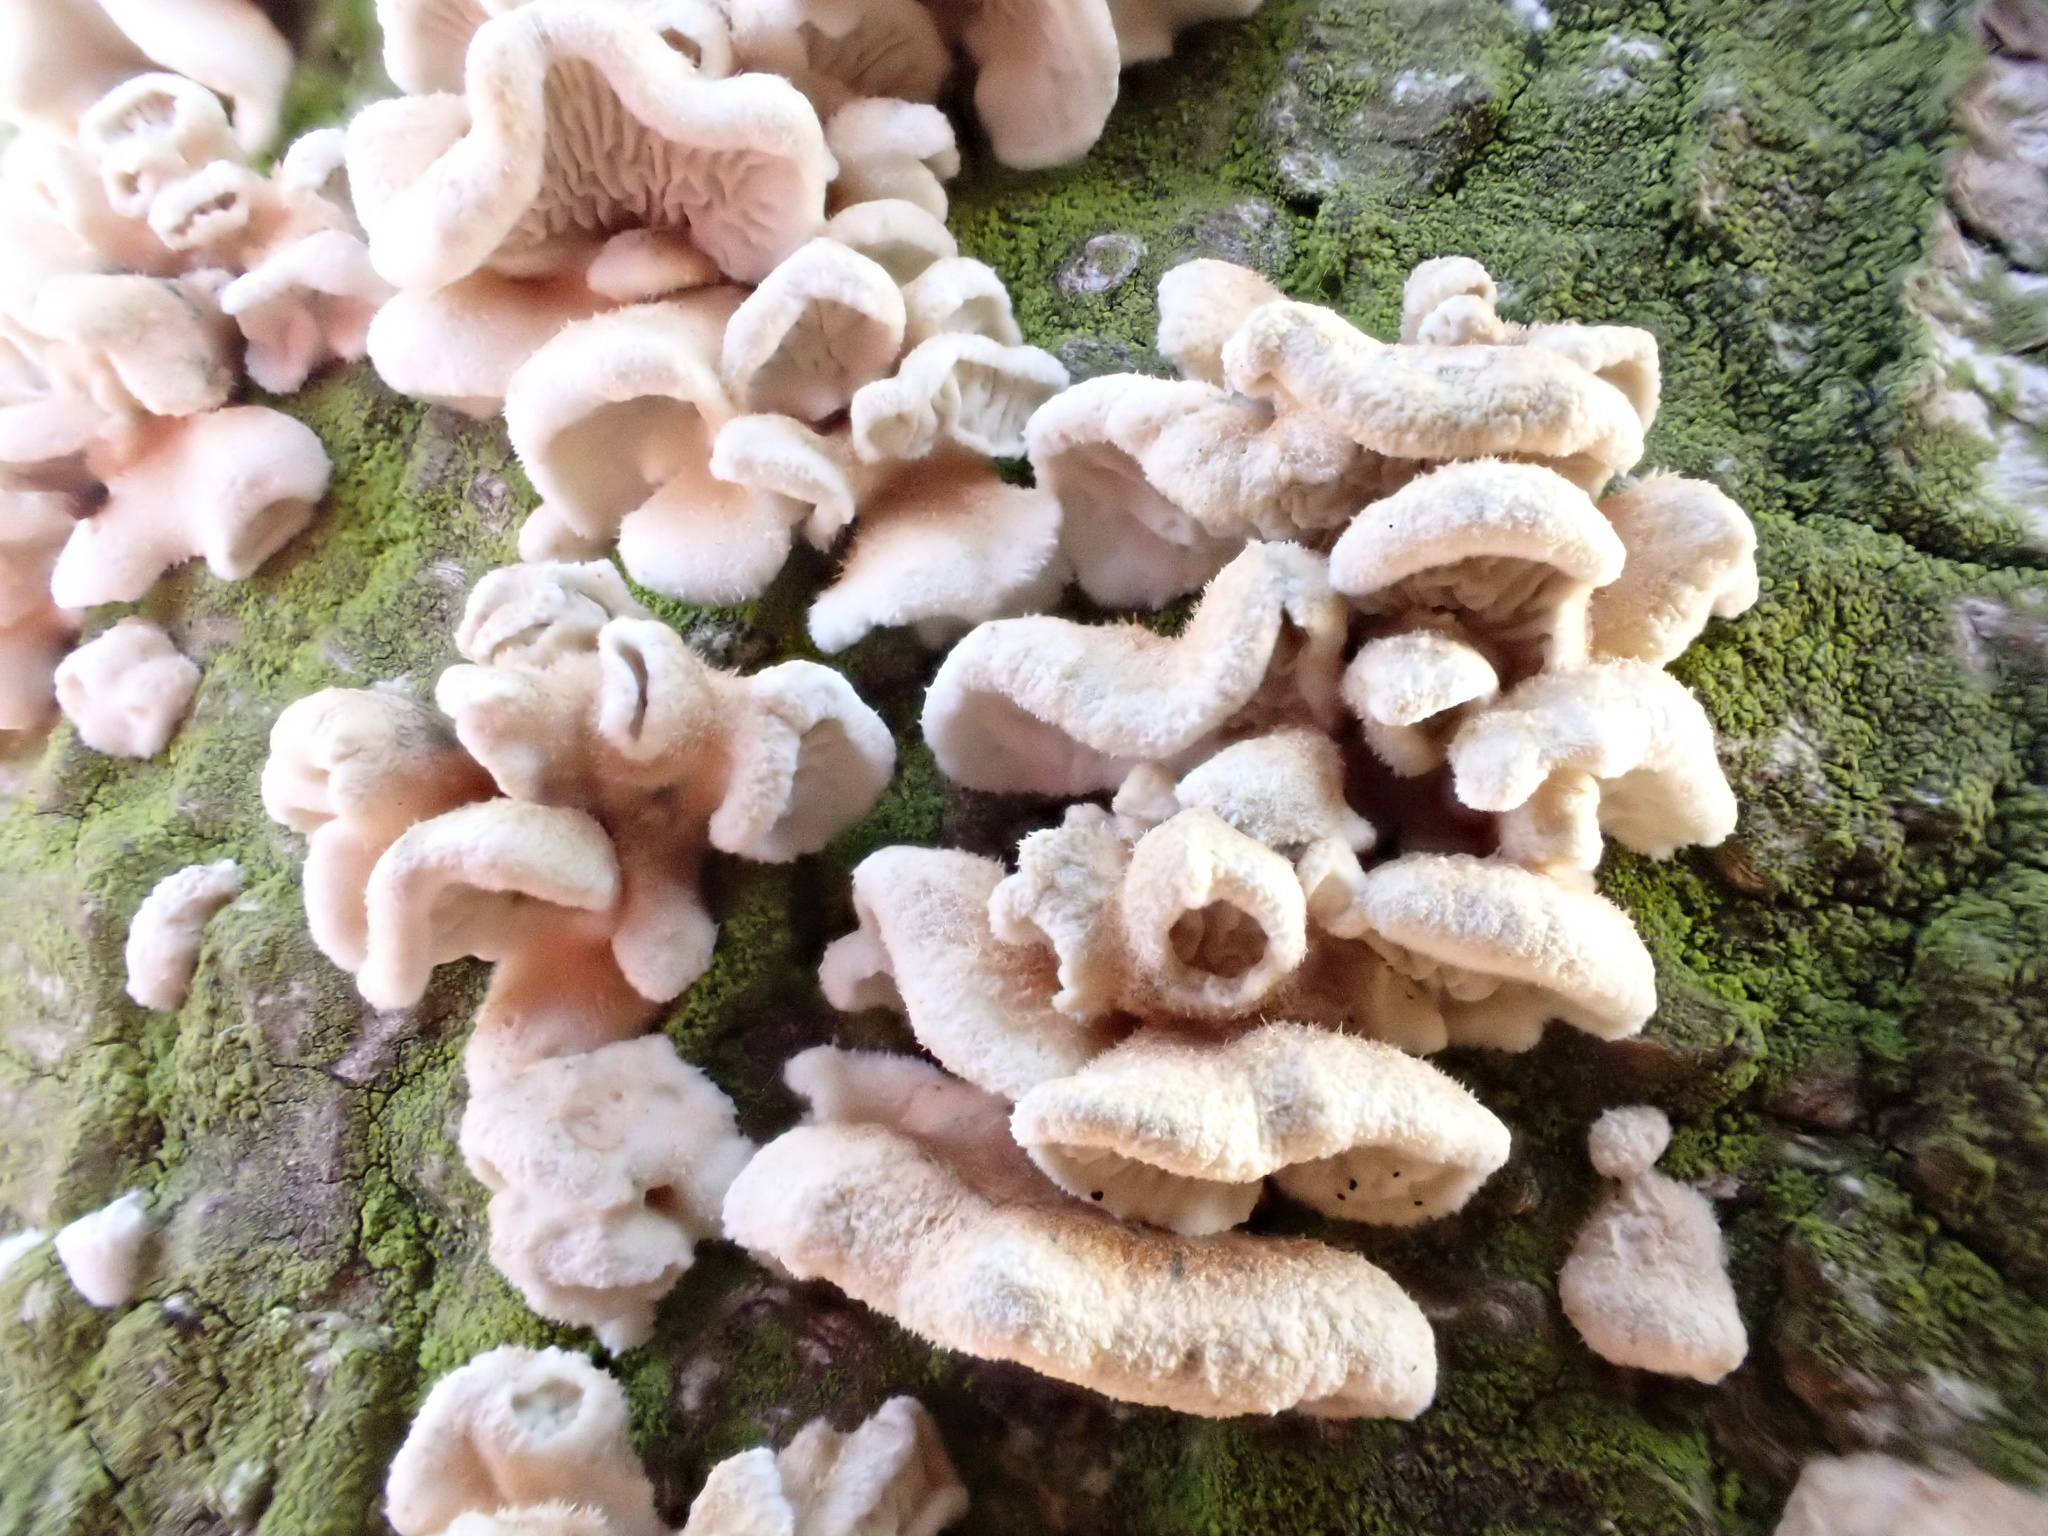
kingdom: Fungi
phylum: Basidiomycota
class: Agaricomycetes
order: Amylocorticiales
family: Amylocorticiaceae
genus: Plicaturopsis
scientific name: Plicaturopsis crispa
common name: Crimped gill
